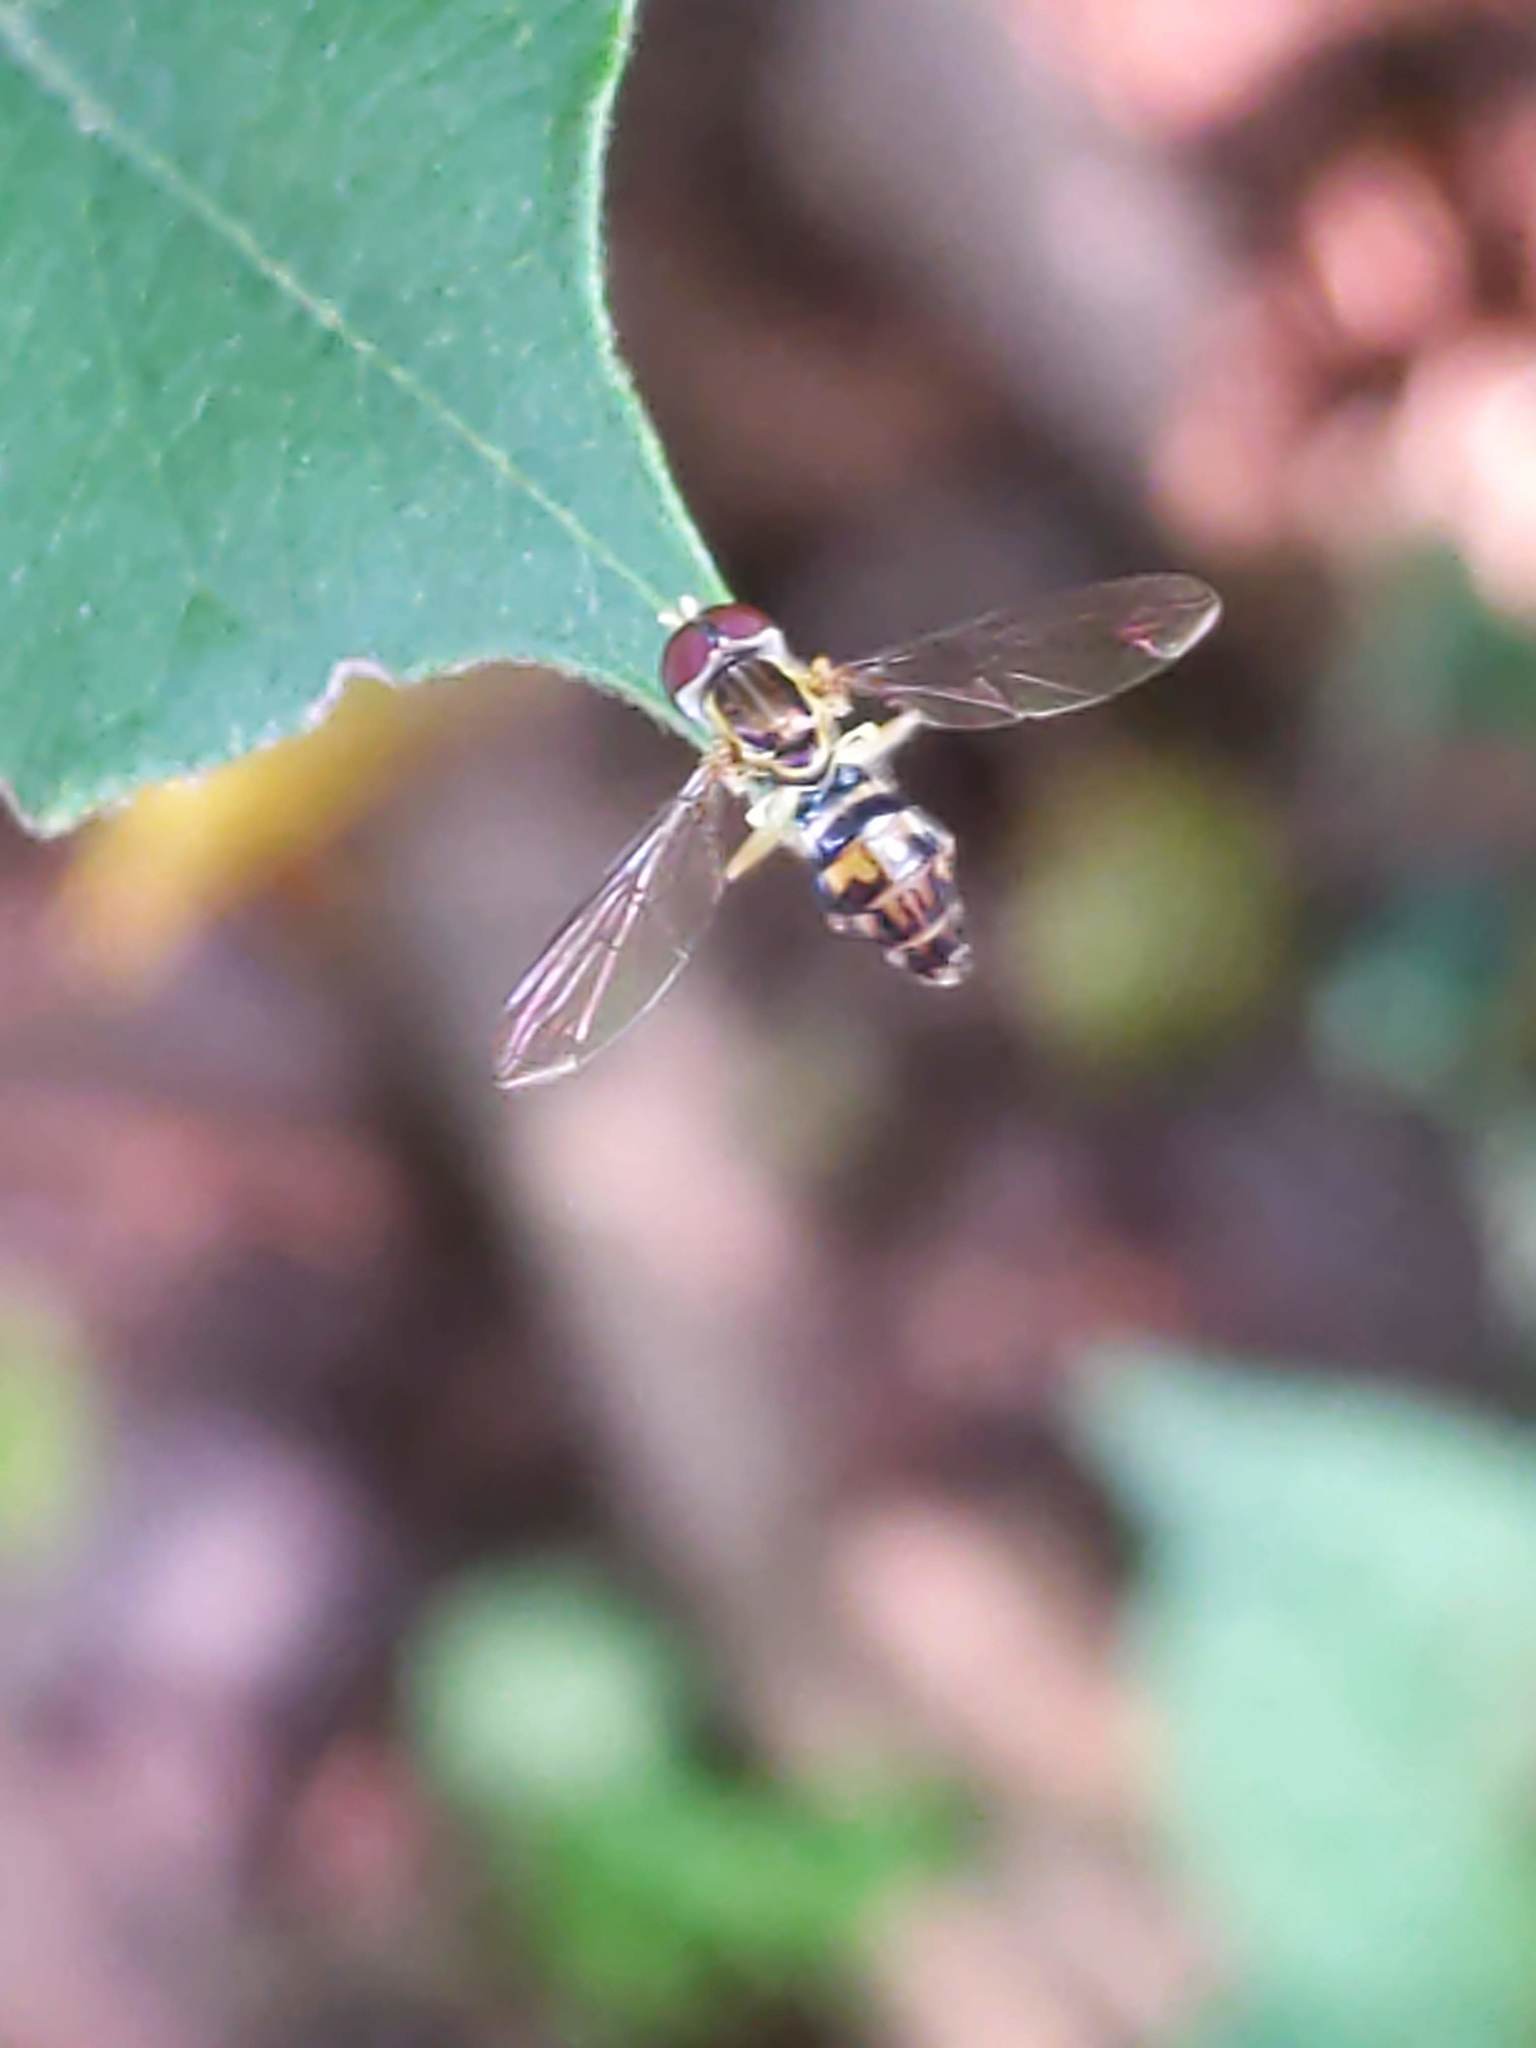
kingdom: Animalia
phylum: Arthropoda
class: Insecta
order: Diptera
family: Syrphidae
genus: Toxomerus
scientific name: Toxomerus geminatus
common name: Eastern calligrapher
